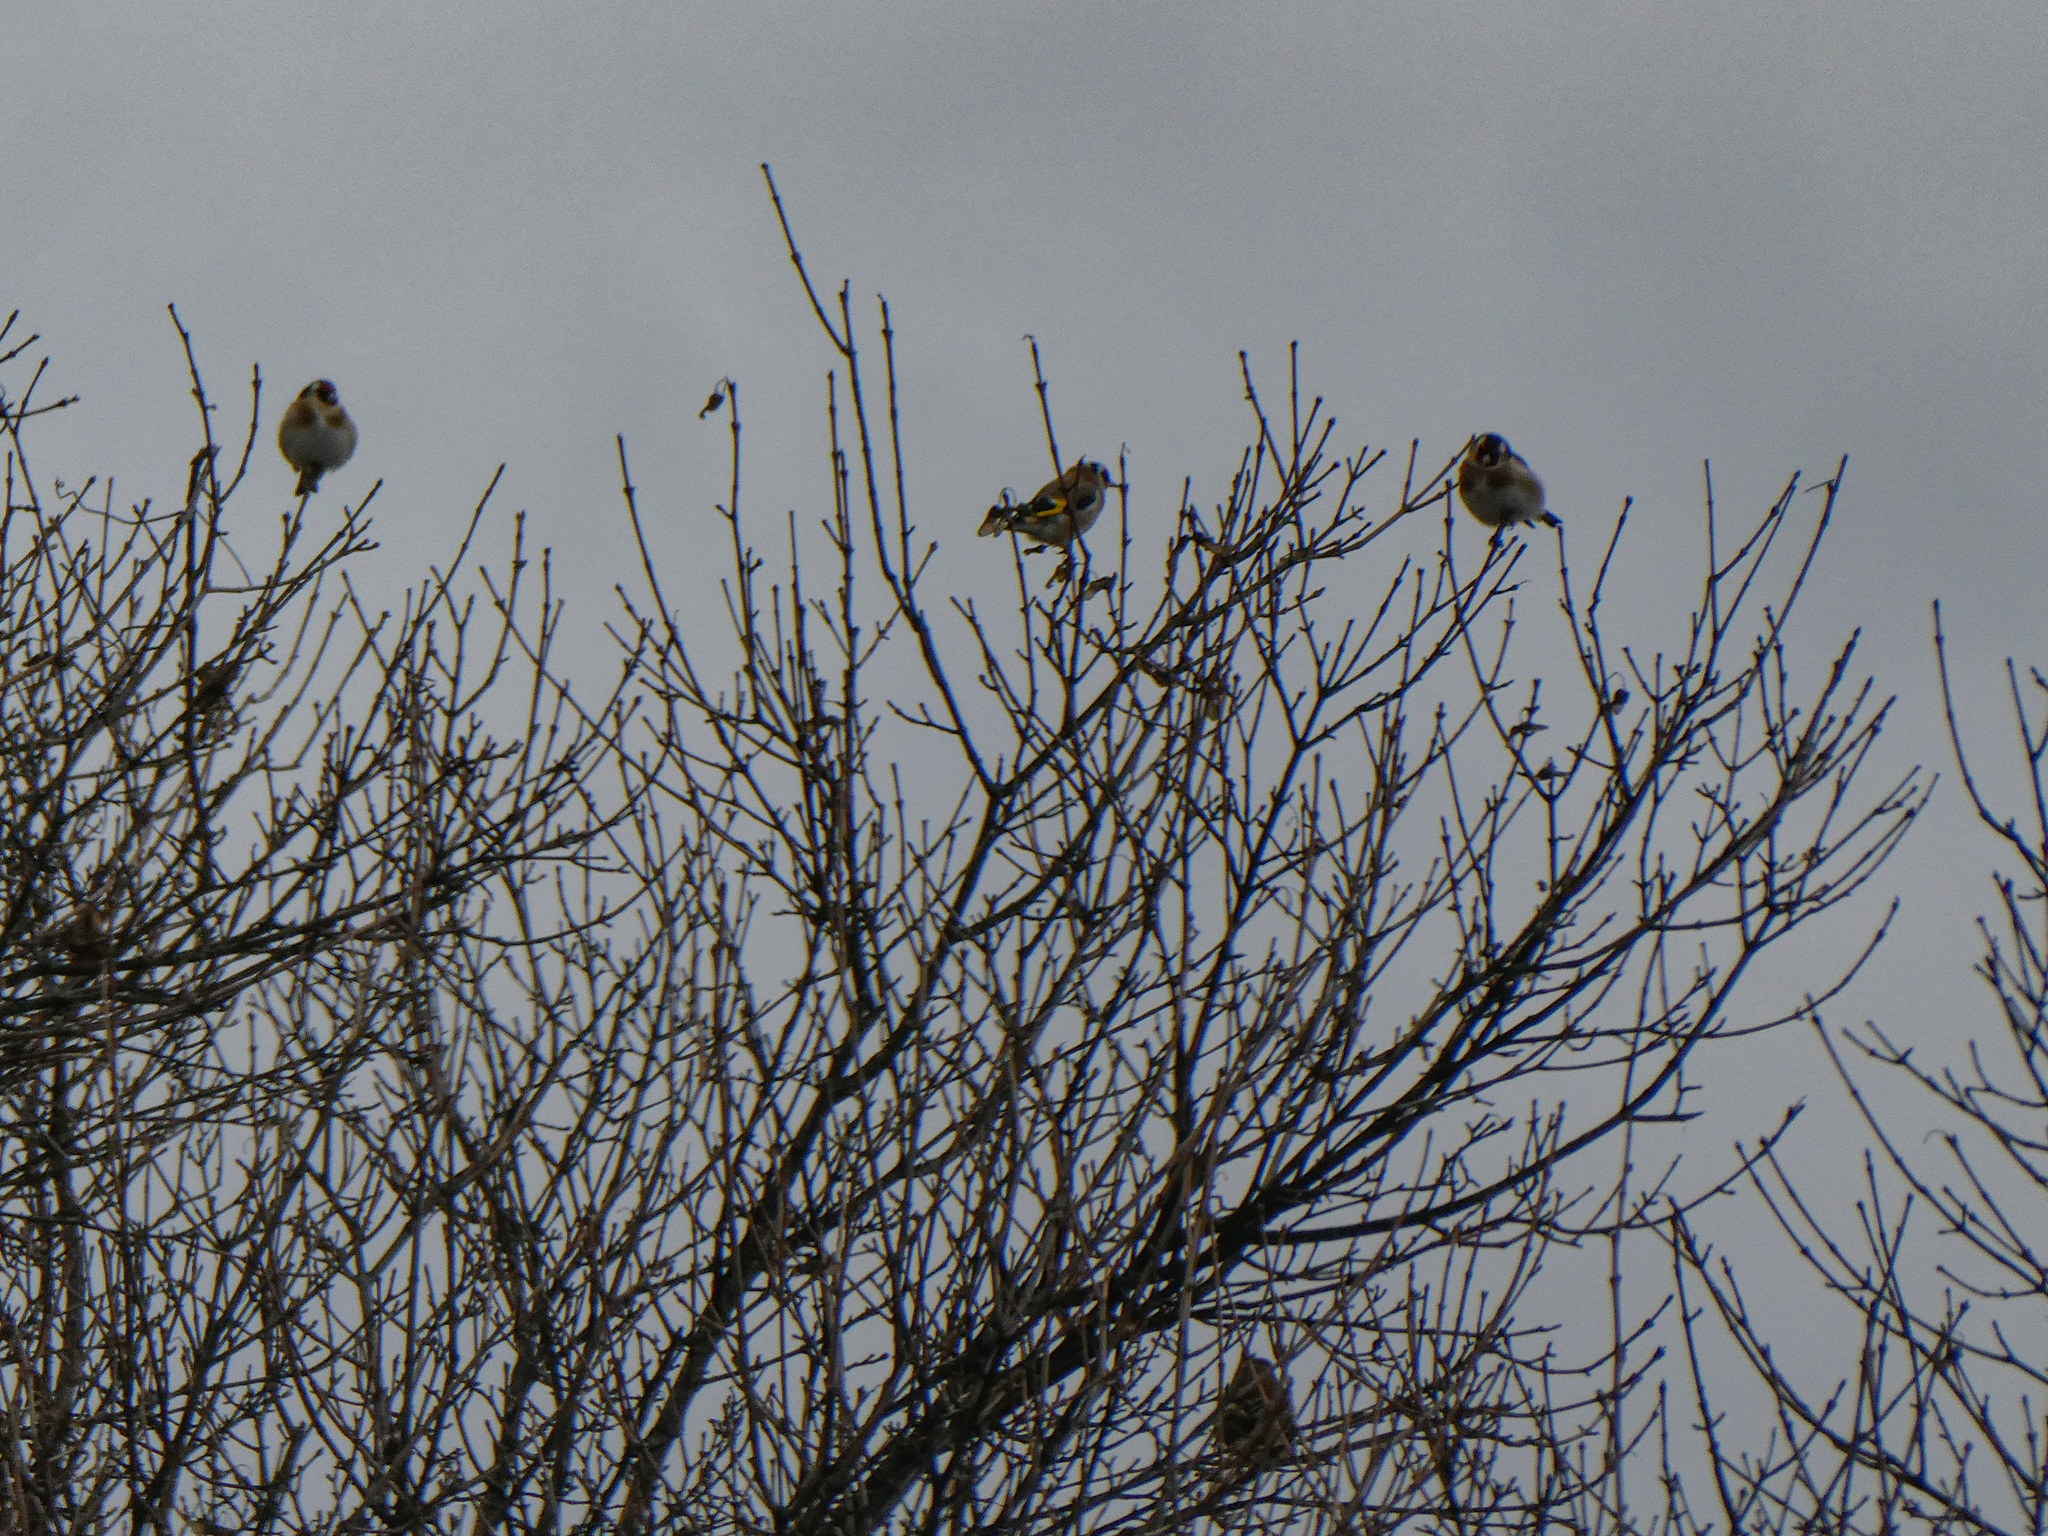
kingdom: Animalia
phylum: Chordata
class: Aves
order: Passeriformes
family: Fringillidae
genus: Carduelis
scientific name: Carduelis carduelis
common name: European goldfinch
